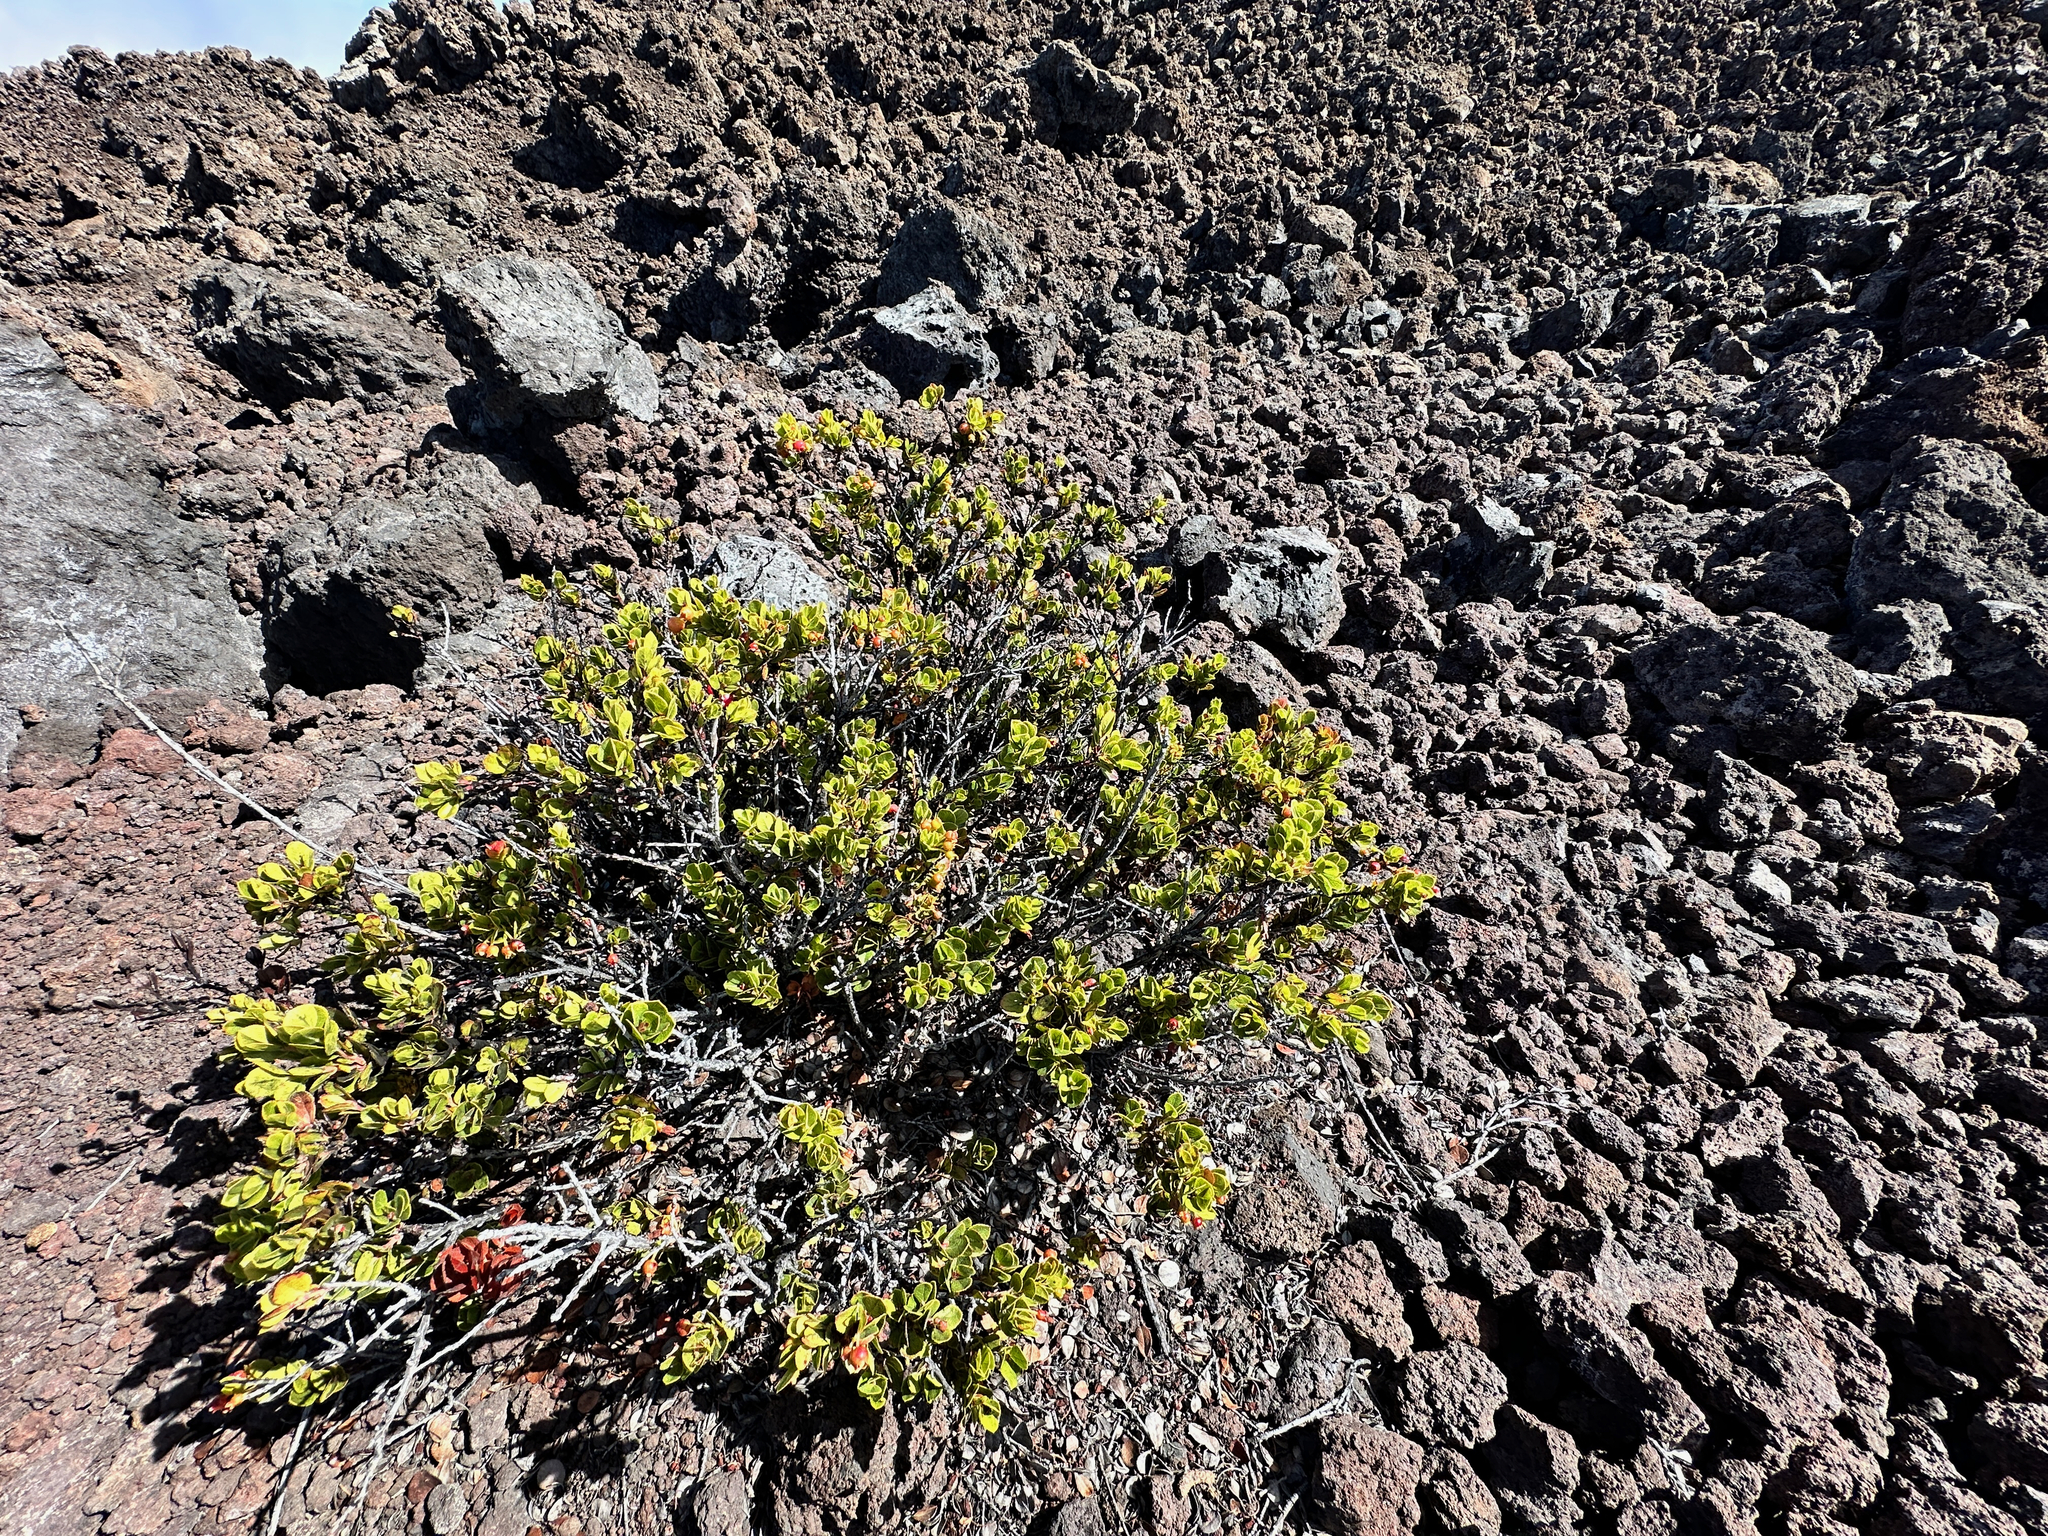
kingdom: Plantae
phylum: Tracheophyta
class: Magnoliopsida
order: Ericales
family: Ericaceae
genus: Vaccinium
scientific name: Vaccinium reticulatum
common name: Ohelo
